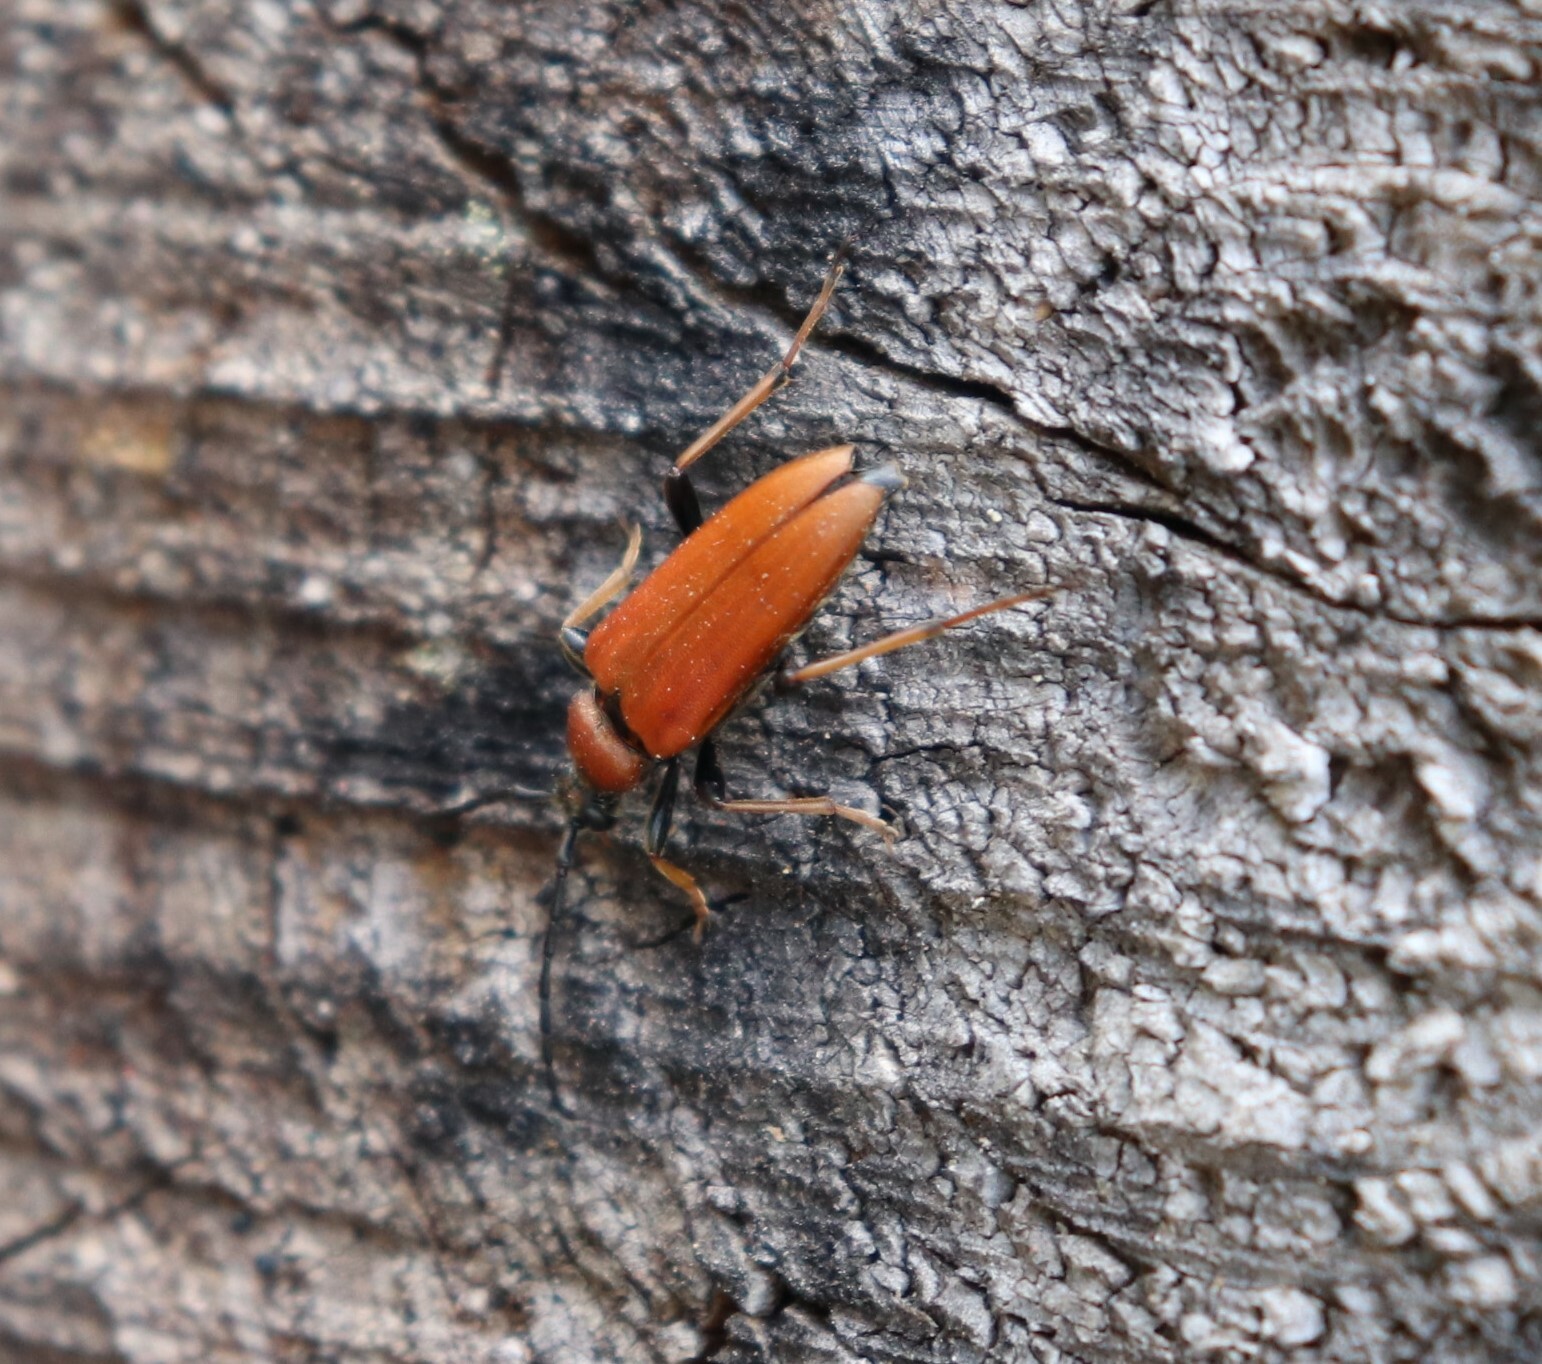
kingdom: Animalia
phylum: Arthropoda
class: Insecta
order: Coleoptera
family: Cerambycidae
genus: Stictoleptura
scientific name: Stictoleptura rubra
